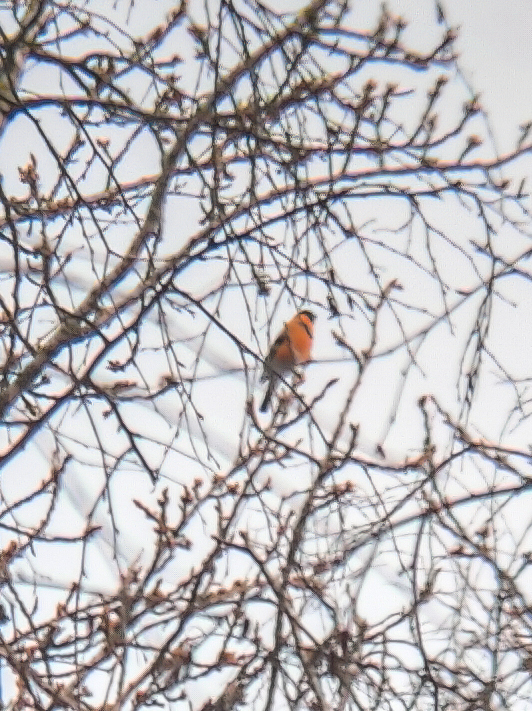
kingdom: Animalia
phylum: Chordata
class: Aves
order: Passeriformes
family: Fringillidae
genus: Pyrrhula
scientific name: Pyrrhula pyrrhula
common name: Eurasian bullfinch
